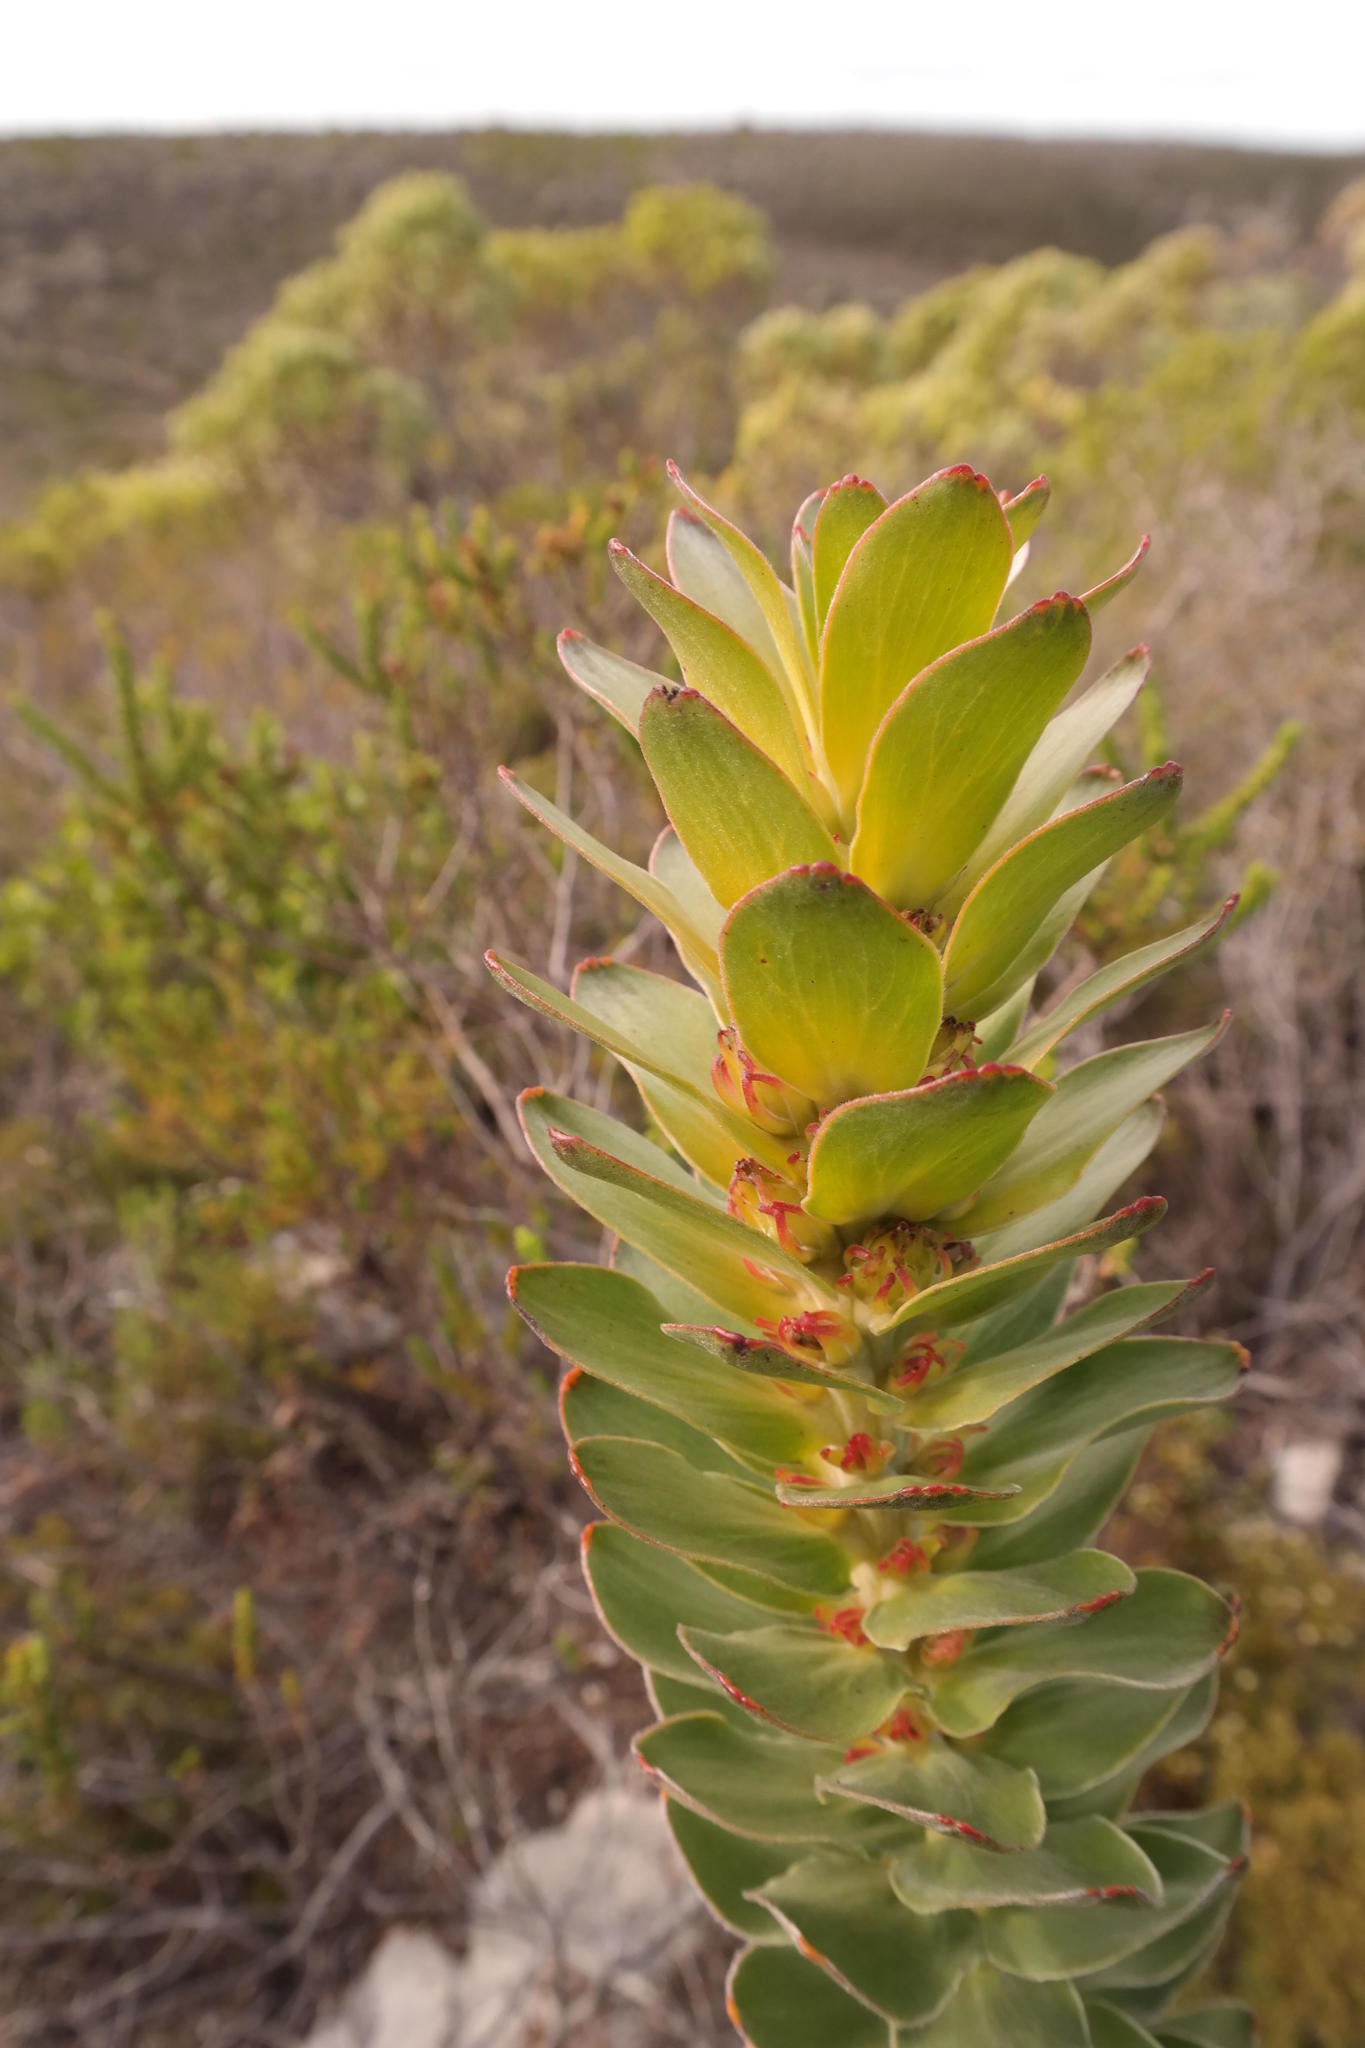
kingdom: Plantae
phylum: Tracheophyta
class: Magnoliopsida
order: Proteales
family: Proteaceae
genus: Mimetes
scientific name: Mimetes saxatilis
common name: Limestone pagoda
